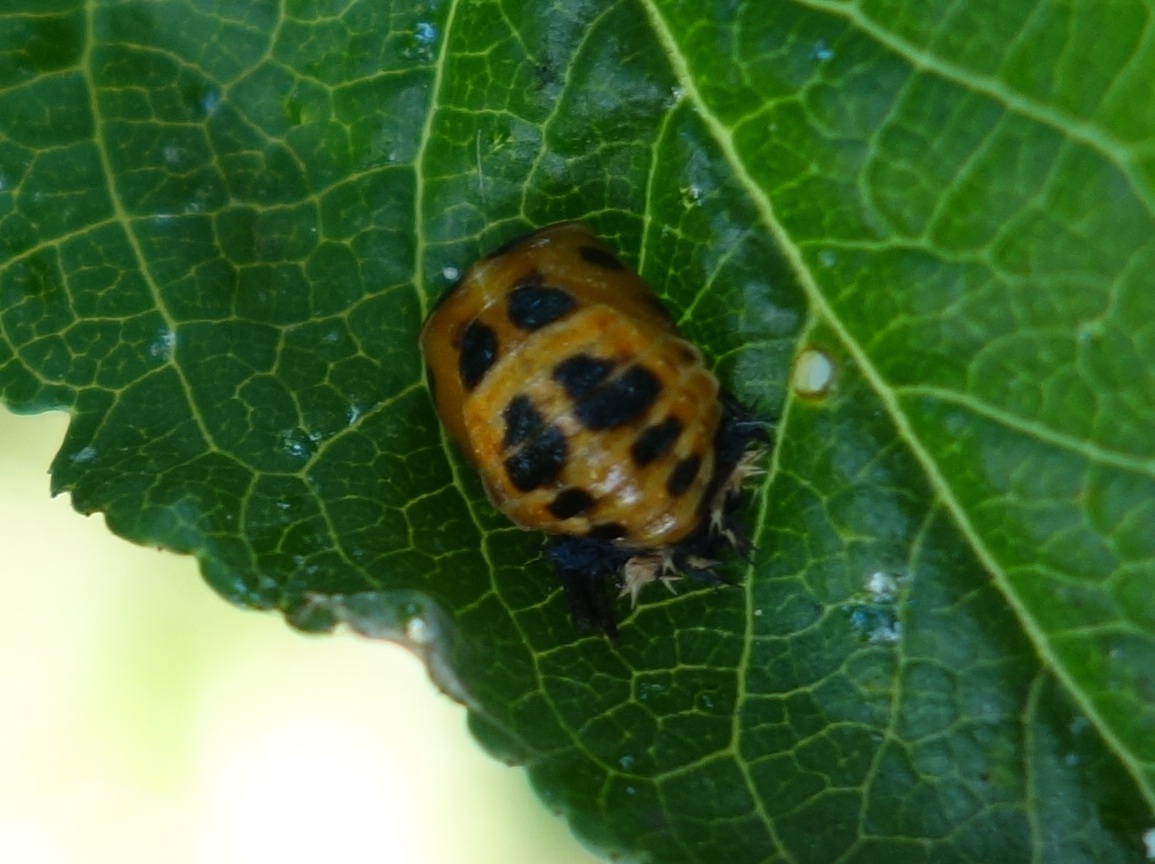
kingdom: Animalia
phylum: Arthropoda
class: Insecta
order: Coleoptera
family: Coccinellidae
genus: Harmonia
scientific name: Harmonia axyridis
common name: Harlequin ladybird
